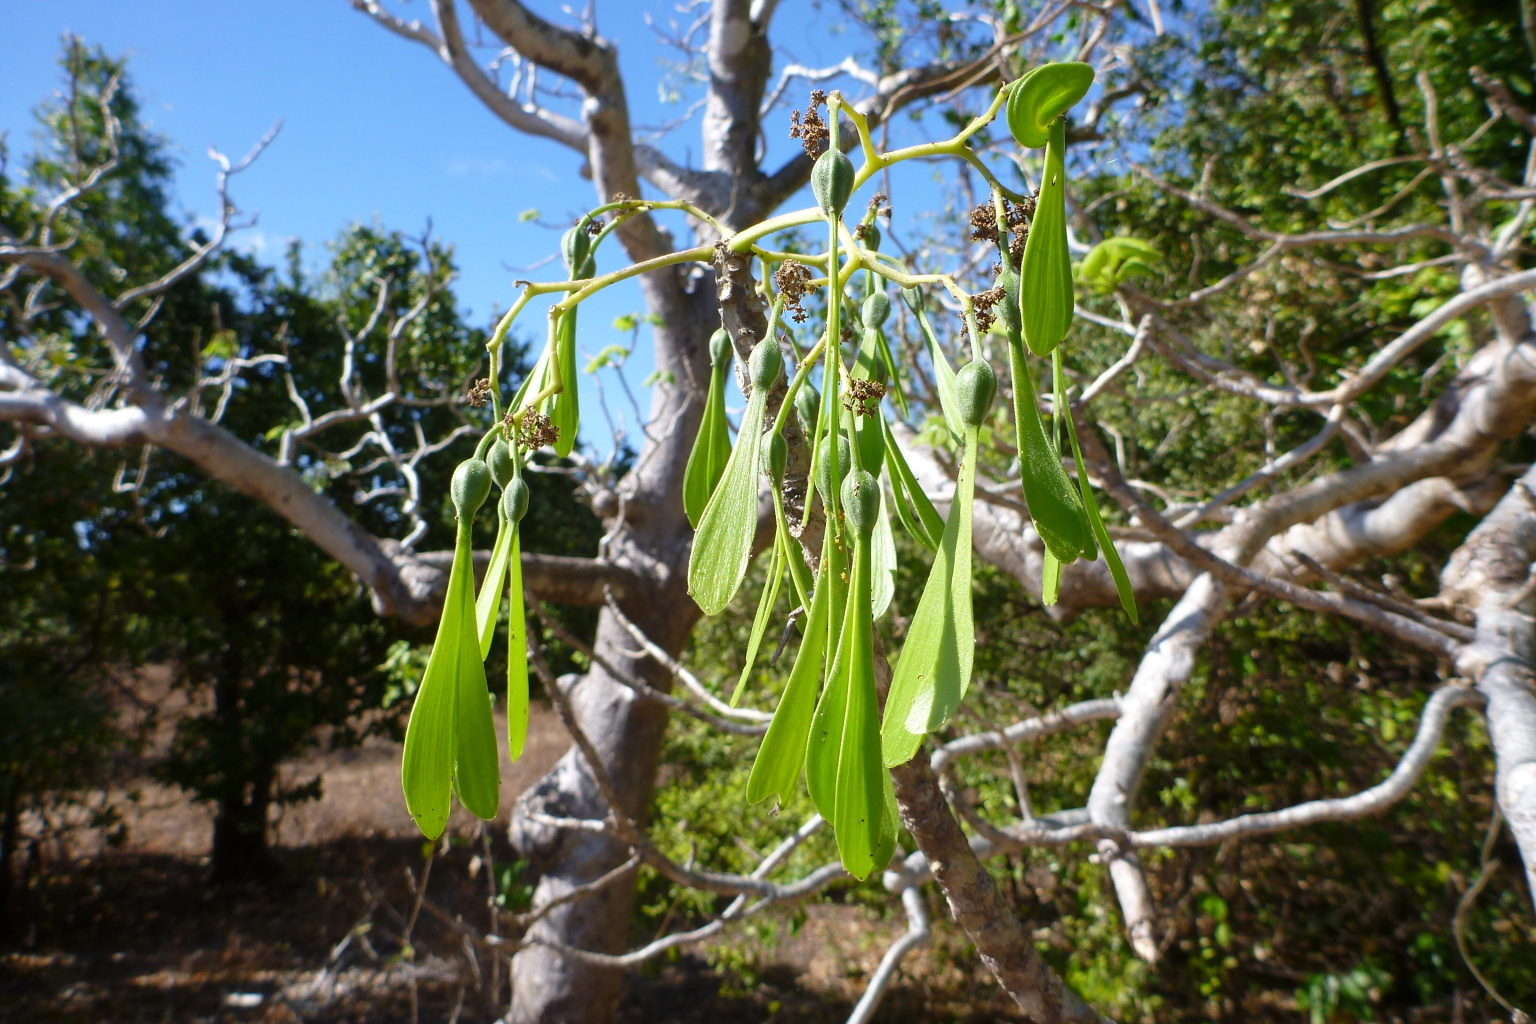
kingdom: Plantae
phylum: Tracheophyta
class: Magnoliopsida
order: Laurales
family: Hernandiaceae
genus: Gyrocarpus
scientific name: Gyrocarpus americanus
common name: Gyro damson
